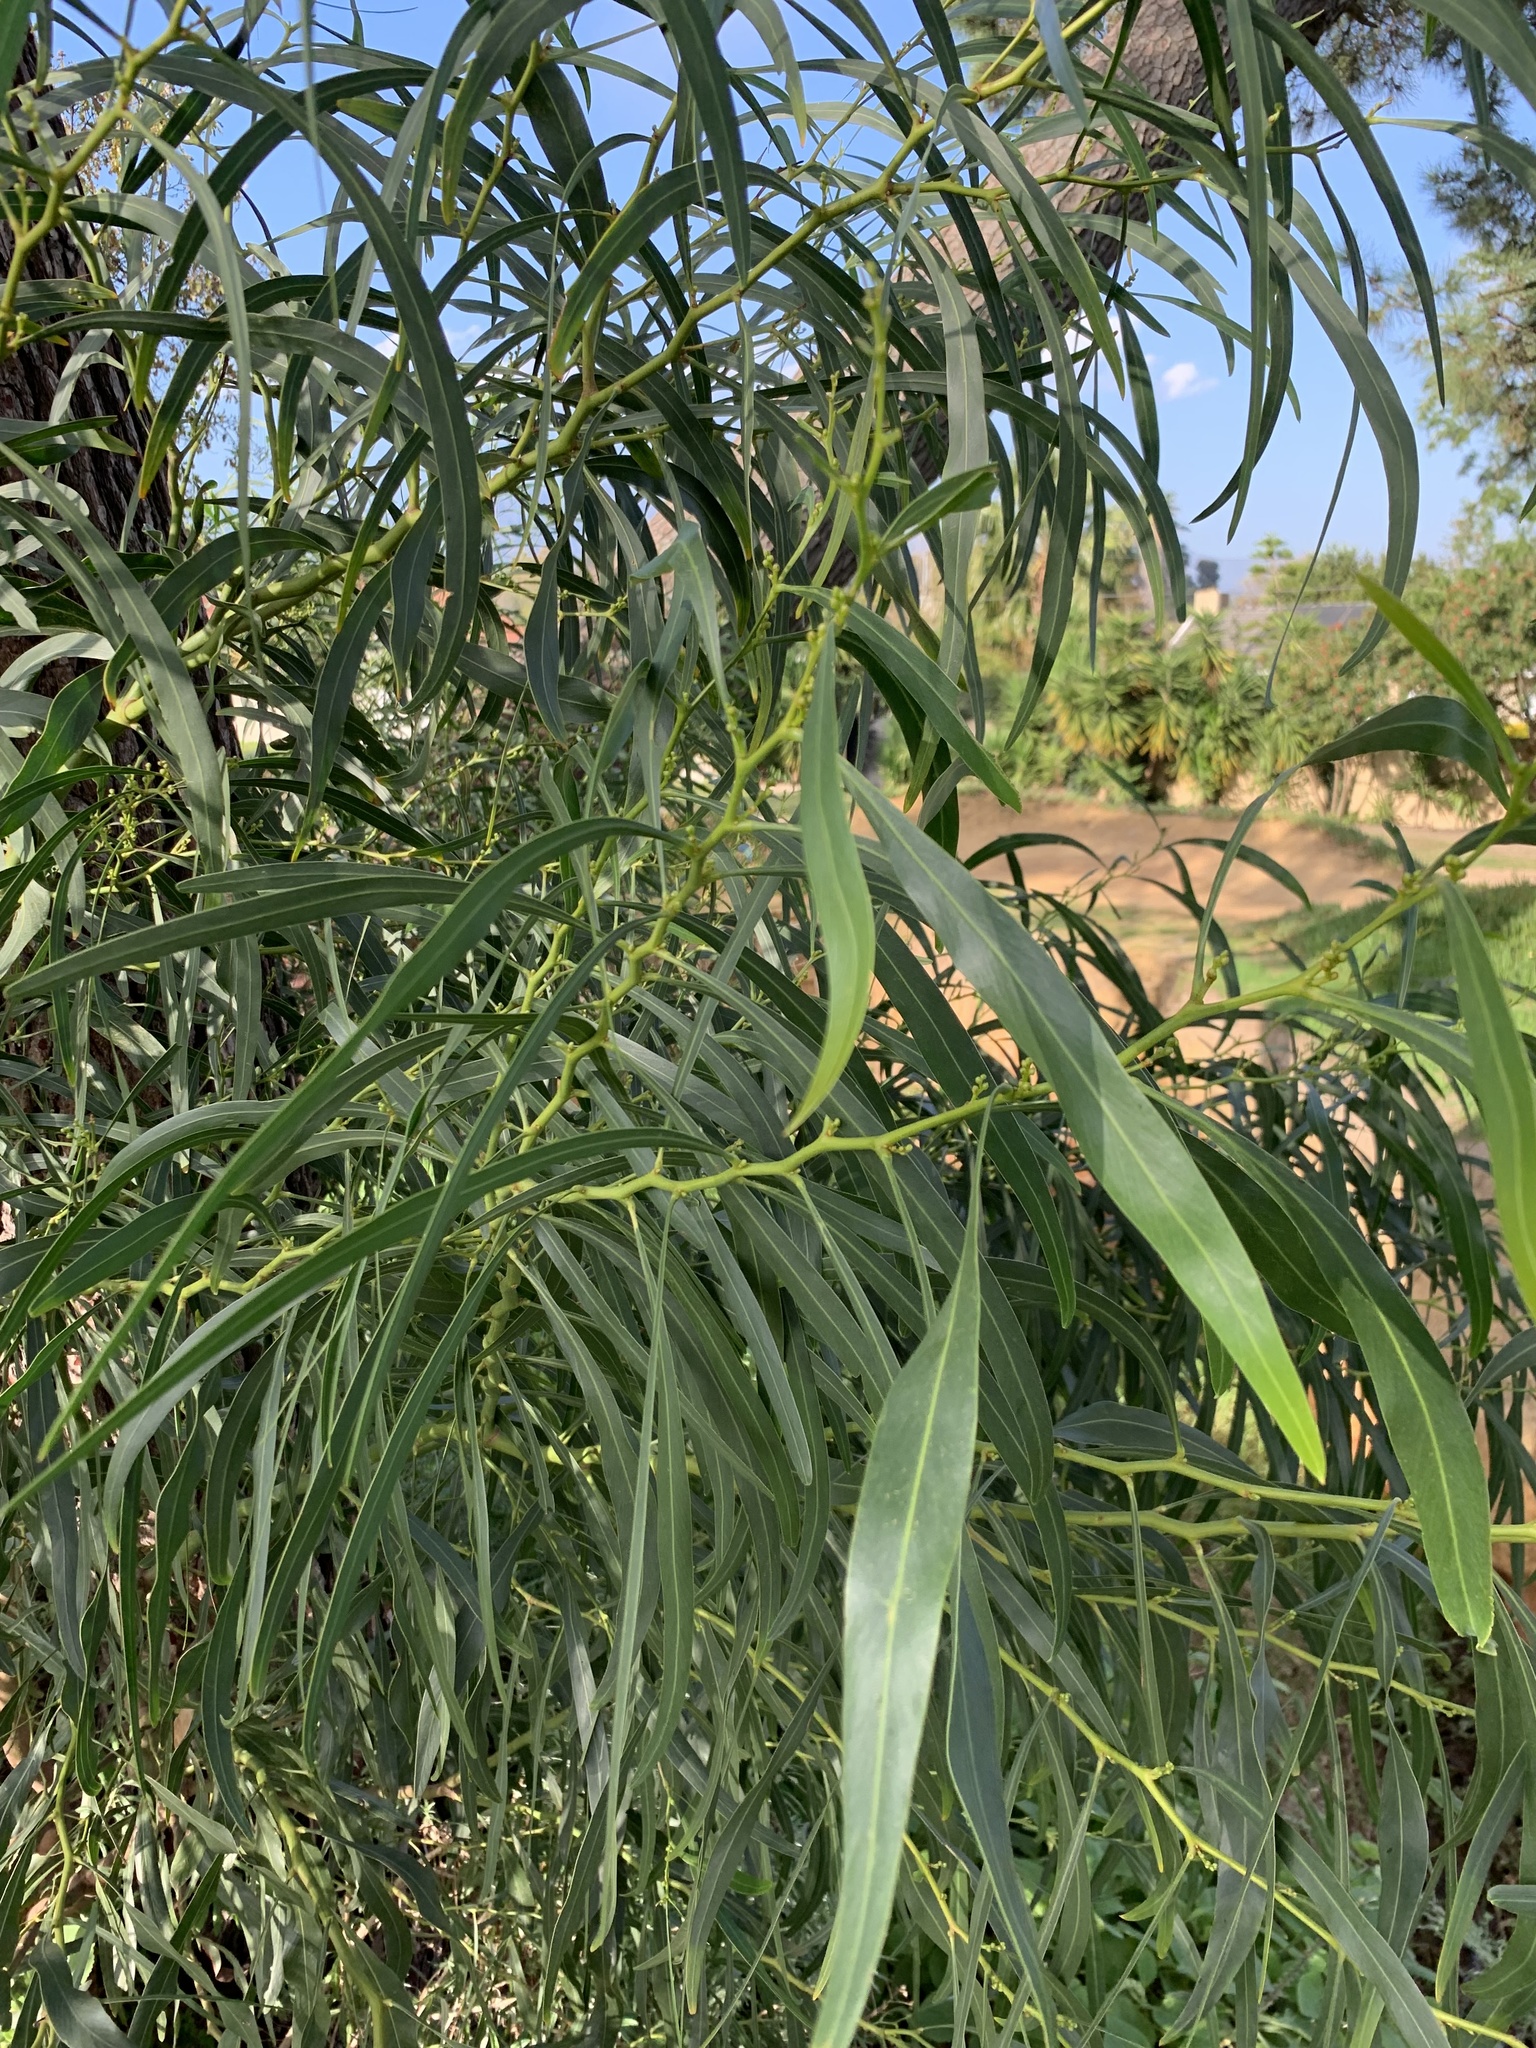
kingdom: Plantae
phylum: Tracheophyta
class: Magnoliopsida
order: Fabales
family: Fabaceae
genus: Acacia
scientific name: Acacia saligna
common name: Orange wattle
